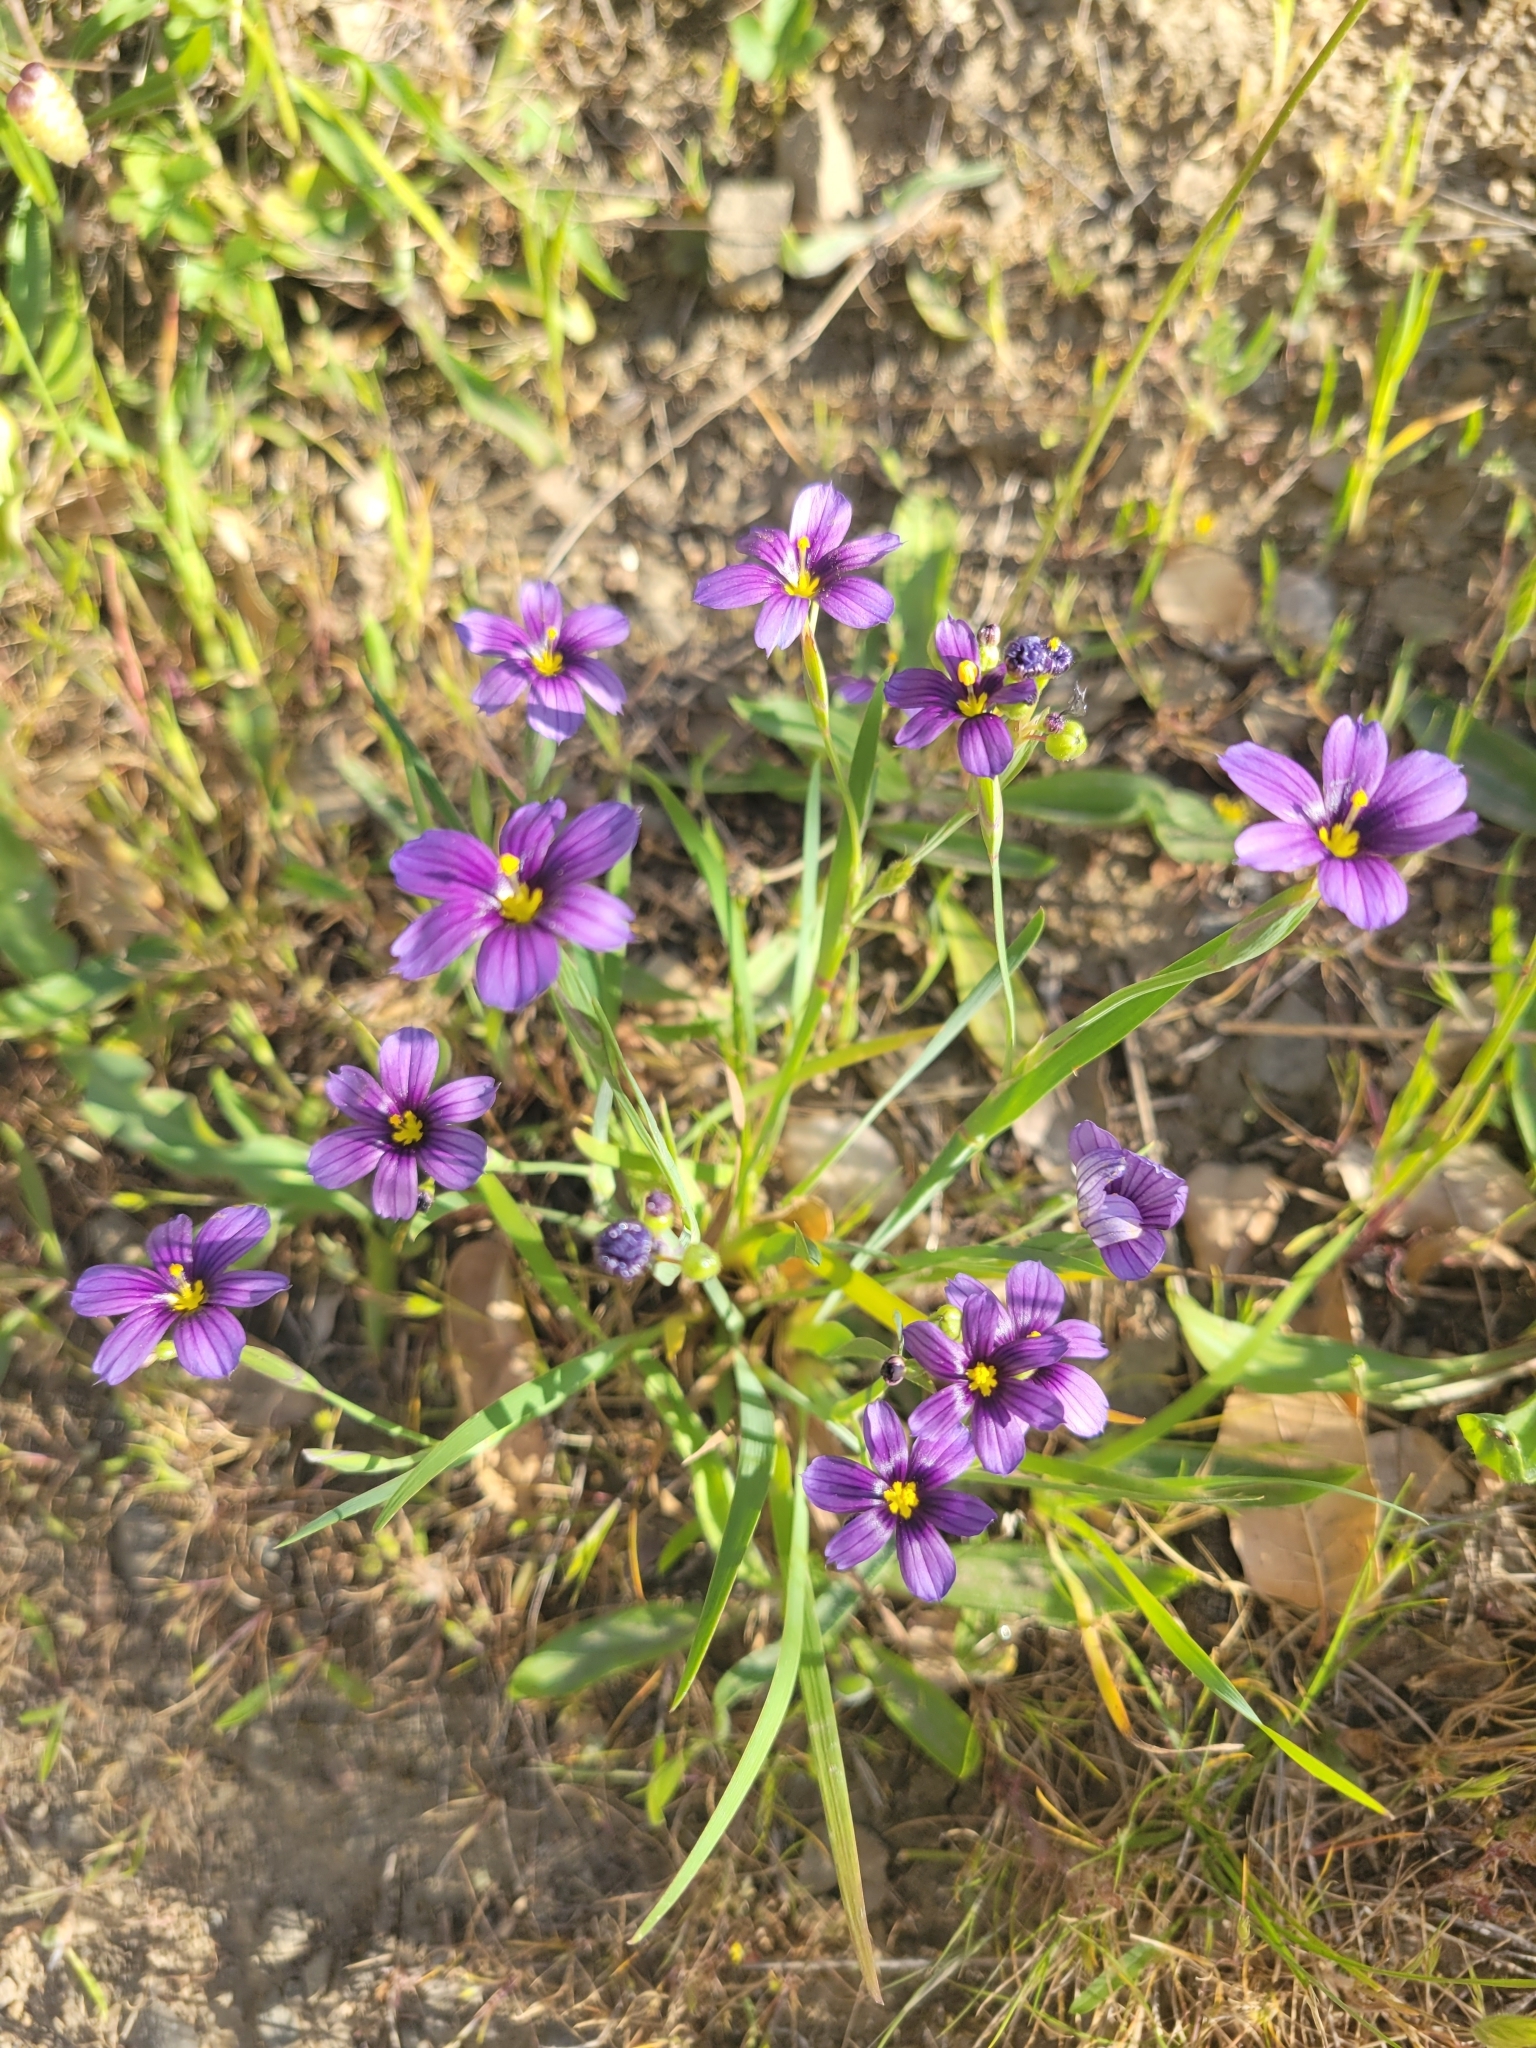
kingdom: Plantae
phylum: Tracheophyta
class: Liliopsida
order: Asparagales
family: Iridaceae
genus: Sisyrinchium
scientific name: Sisyrinchium bellum
